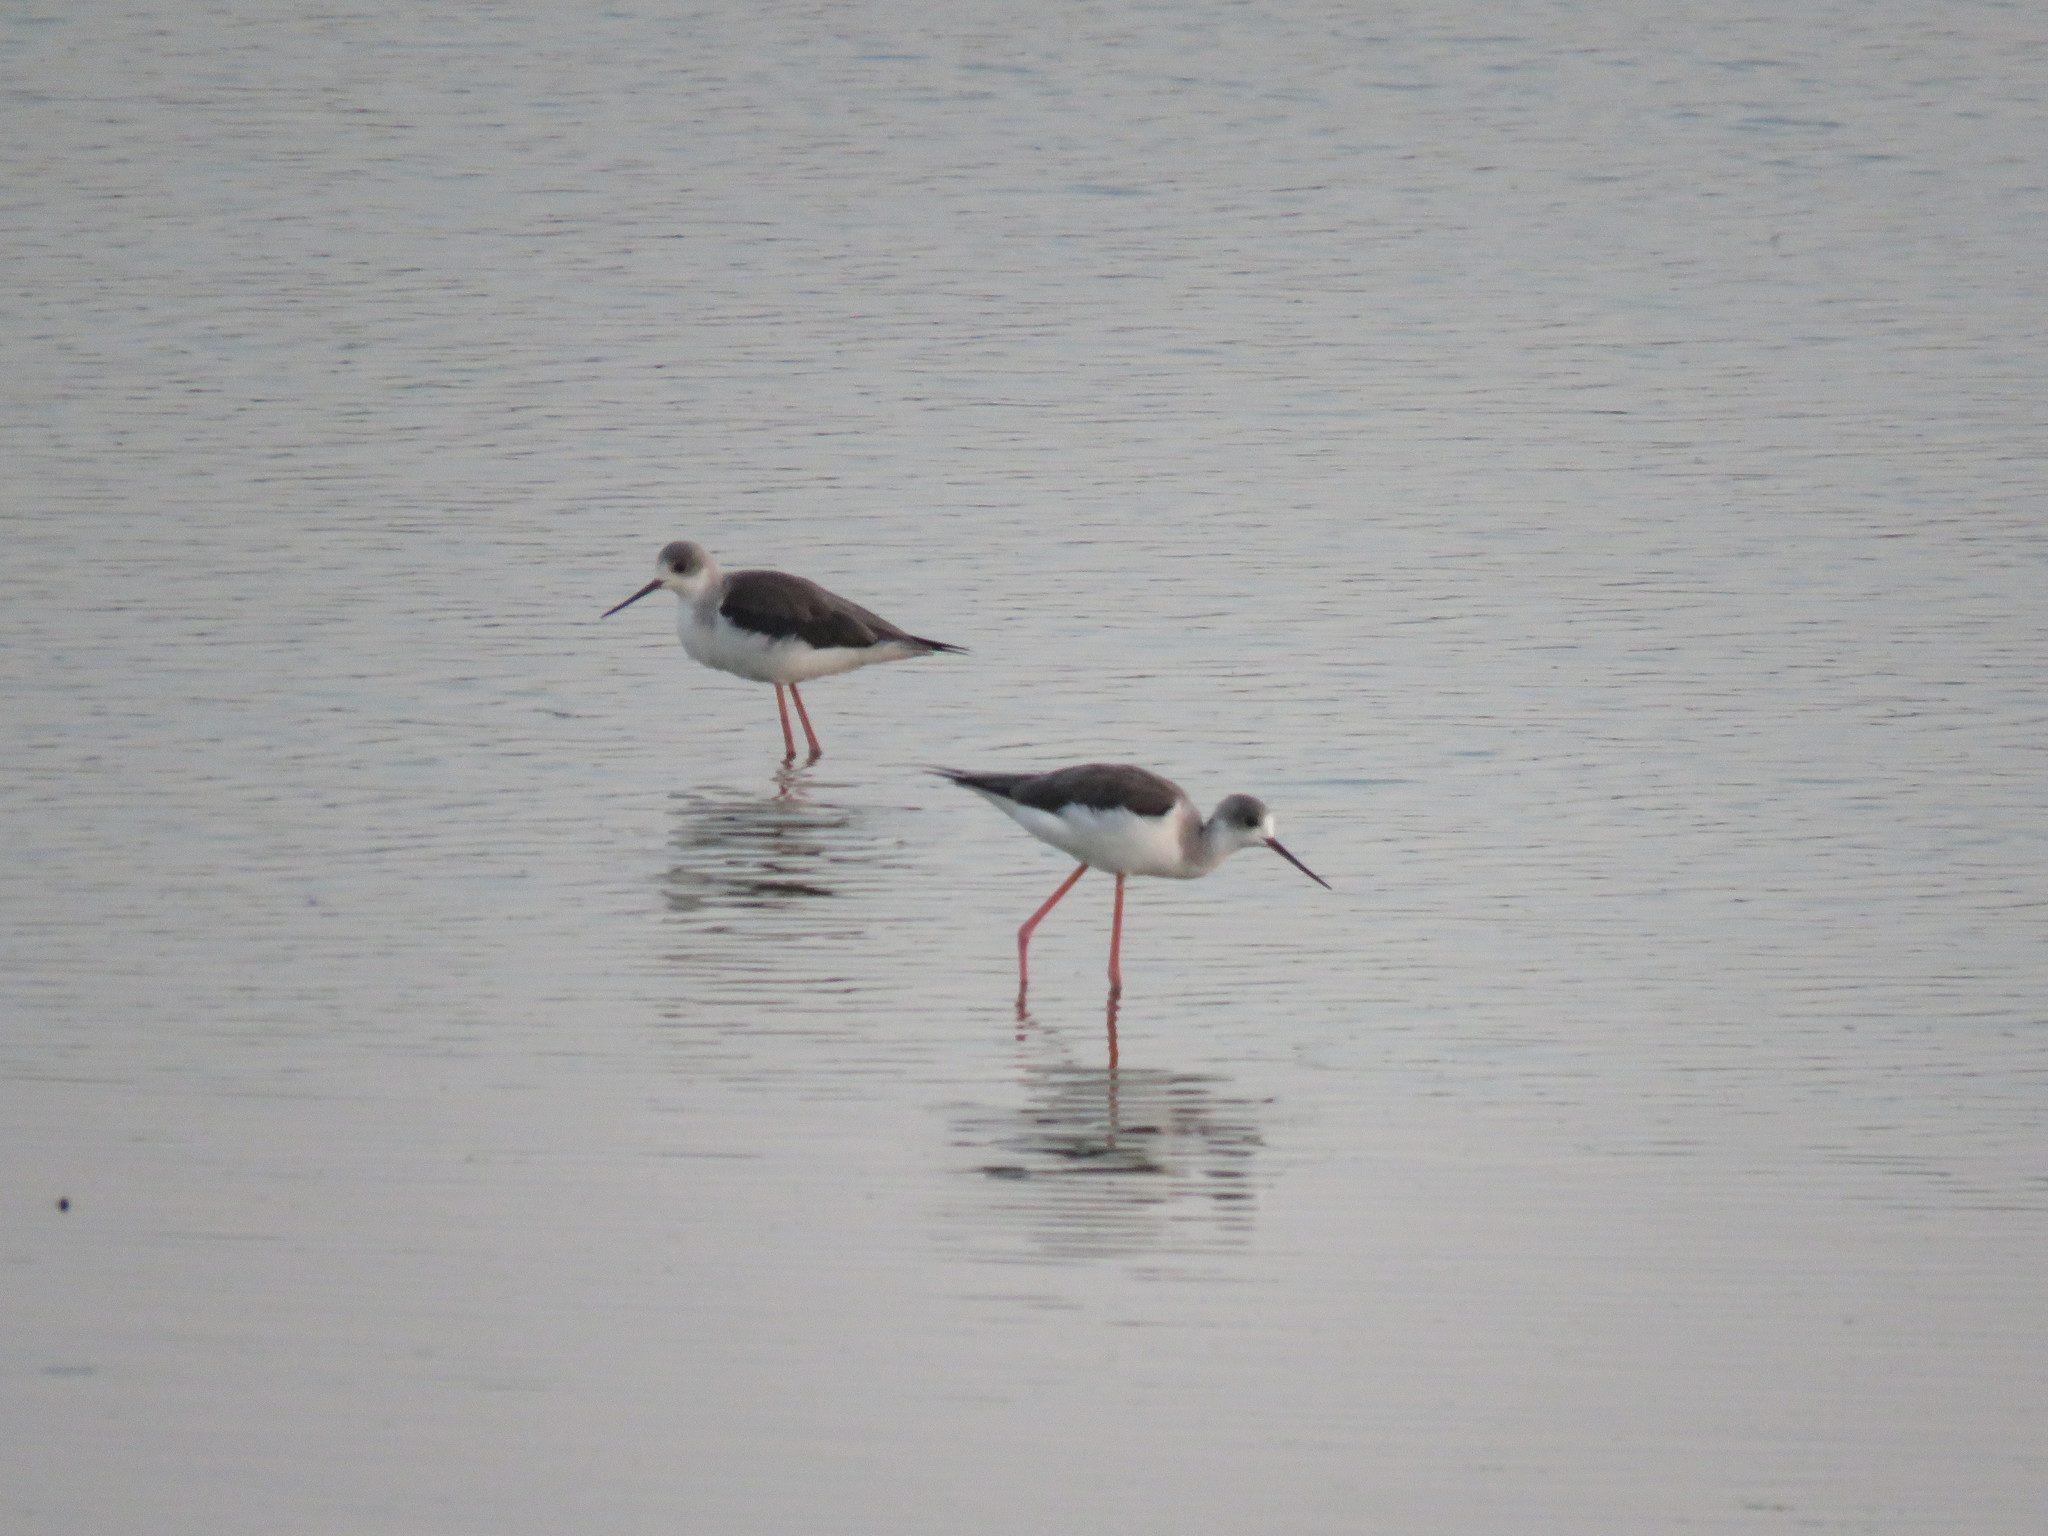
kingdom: Animalia
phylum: Chordata
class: Aves
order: Charadriiformes
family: Recurvirostridae
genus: Himantopus
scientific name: Himantopus himantopus
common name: Black-winged stilt
